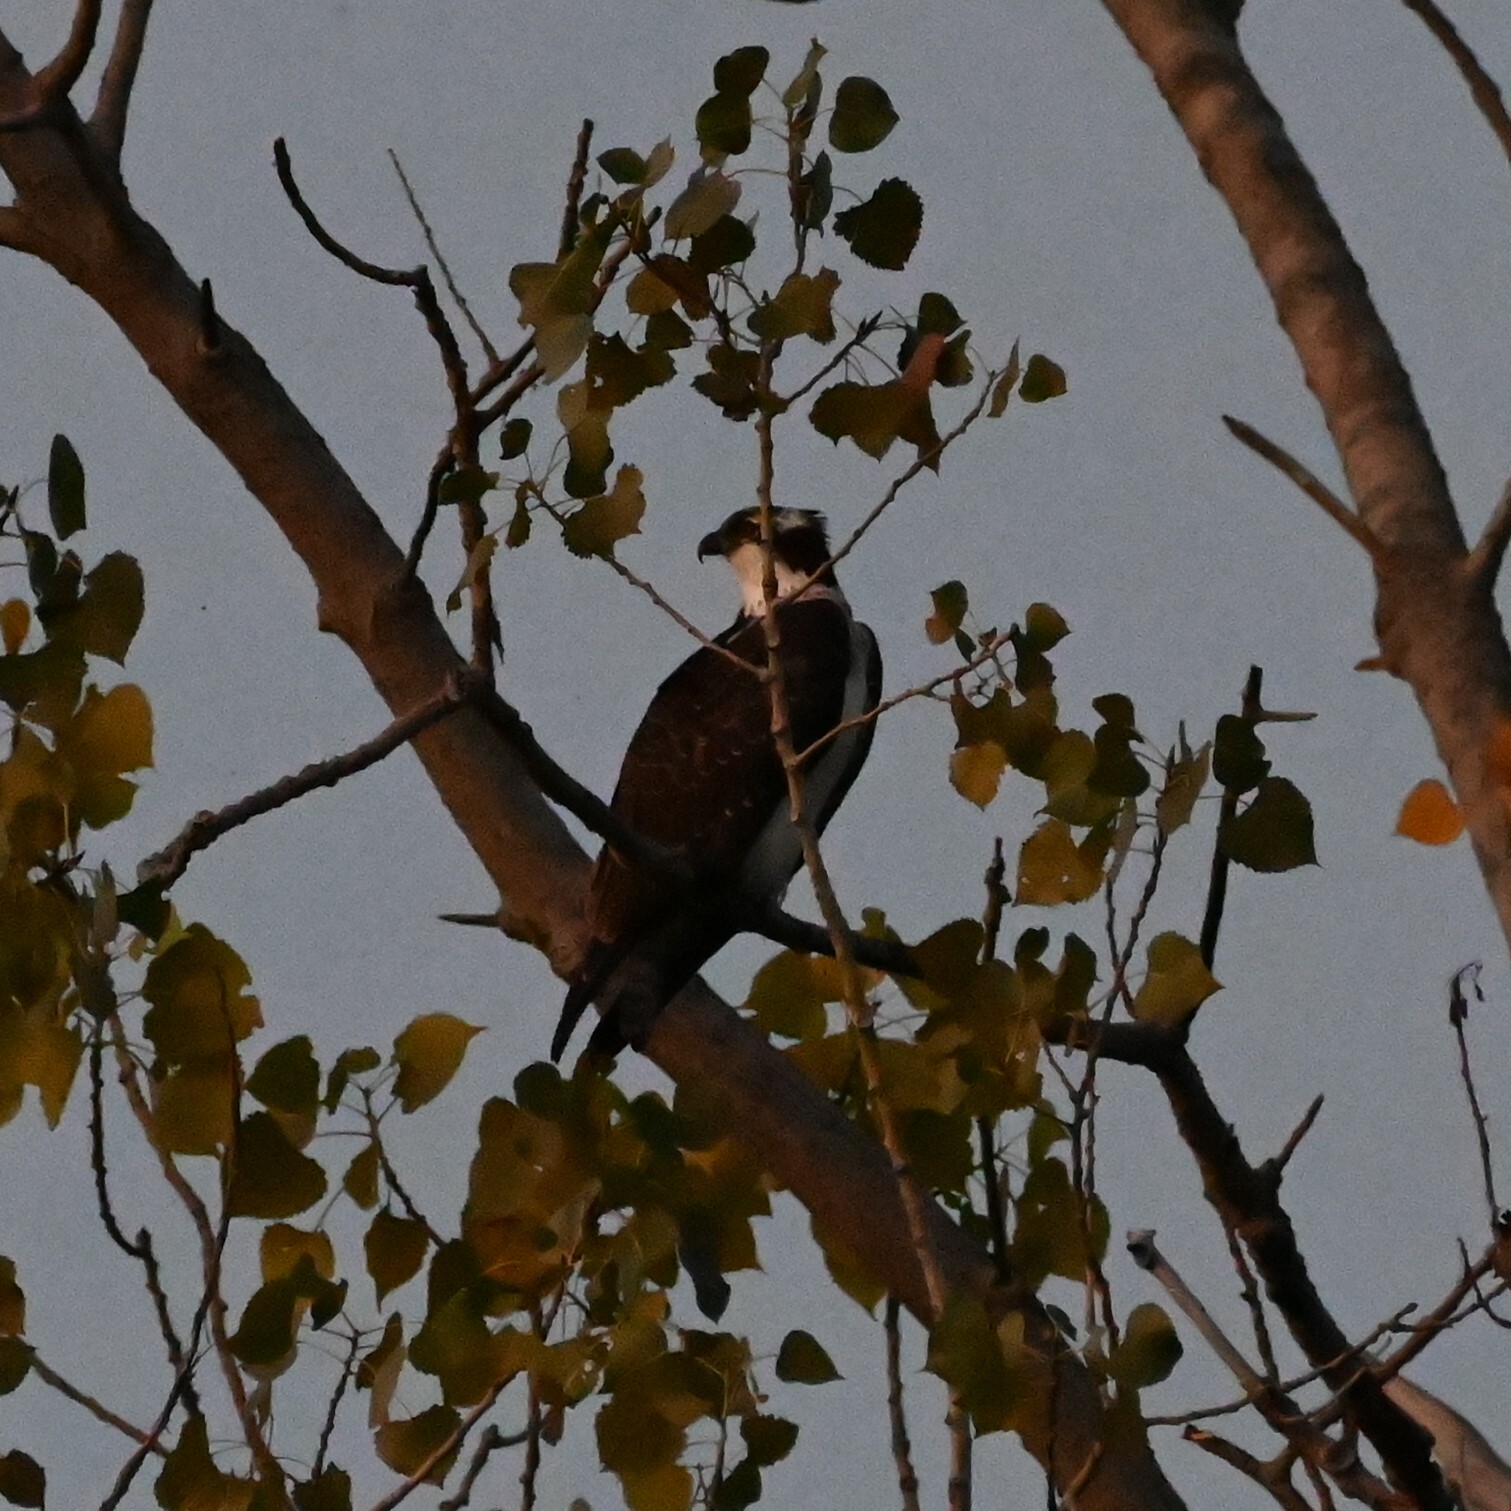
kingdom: Animalia
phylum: Chordata
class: Aves
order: Accipitriformes
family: Pandionidae
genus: Pandion
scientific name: Pandion haliaetus
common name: Osprey
